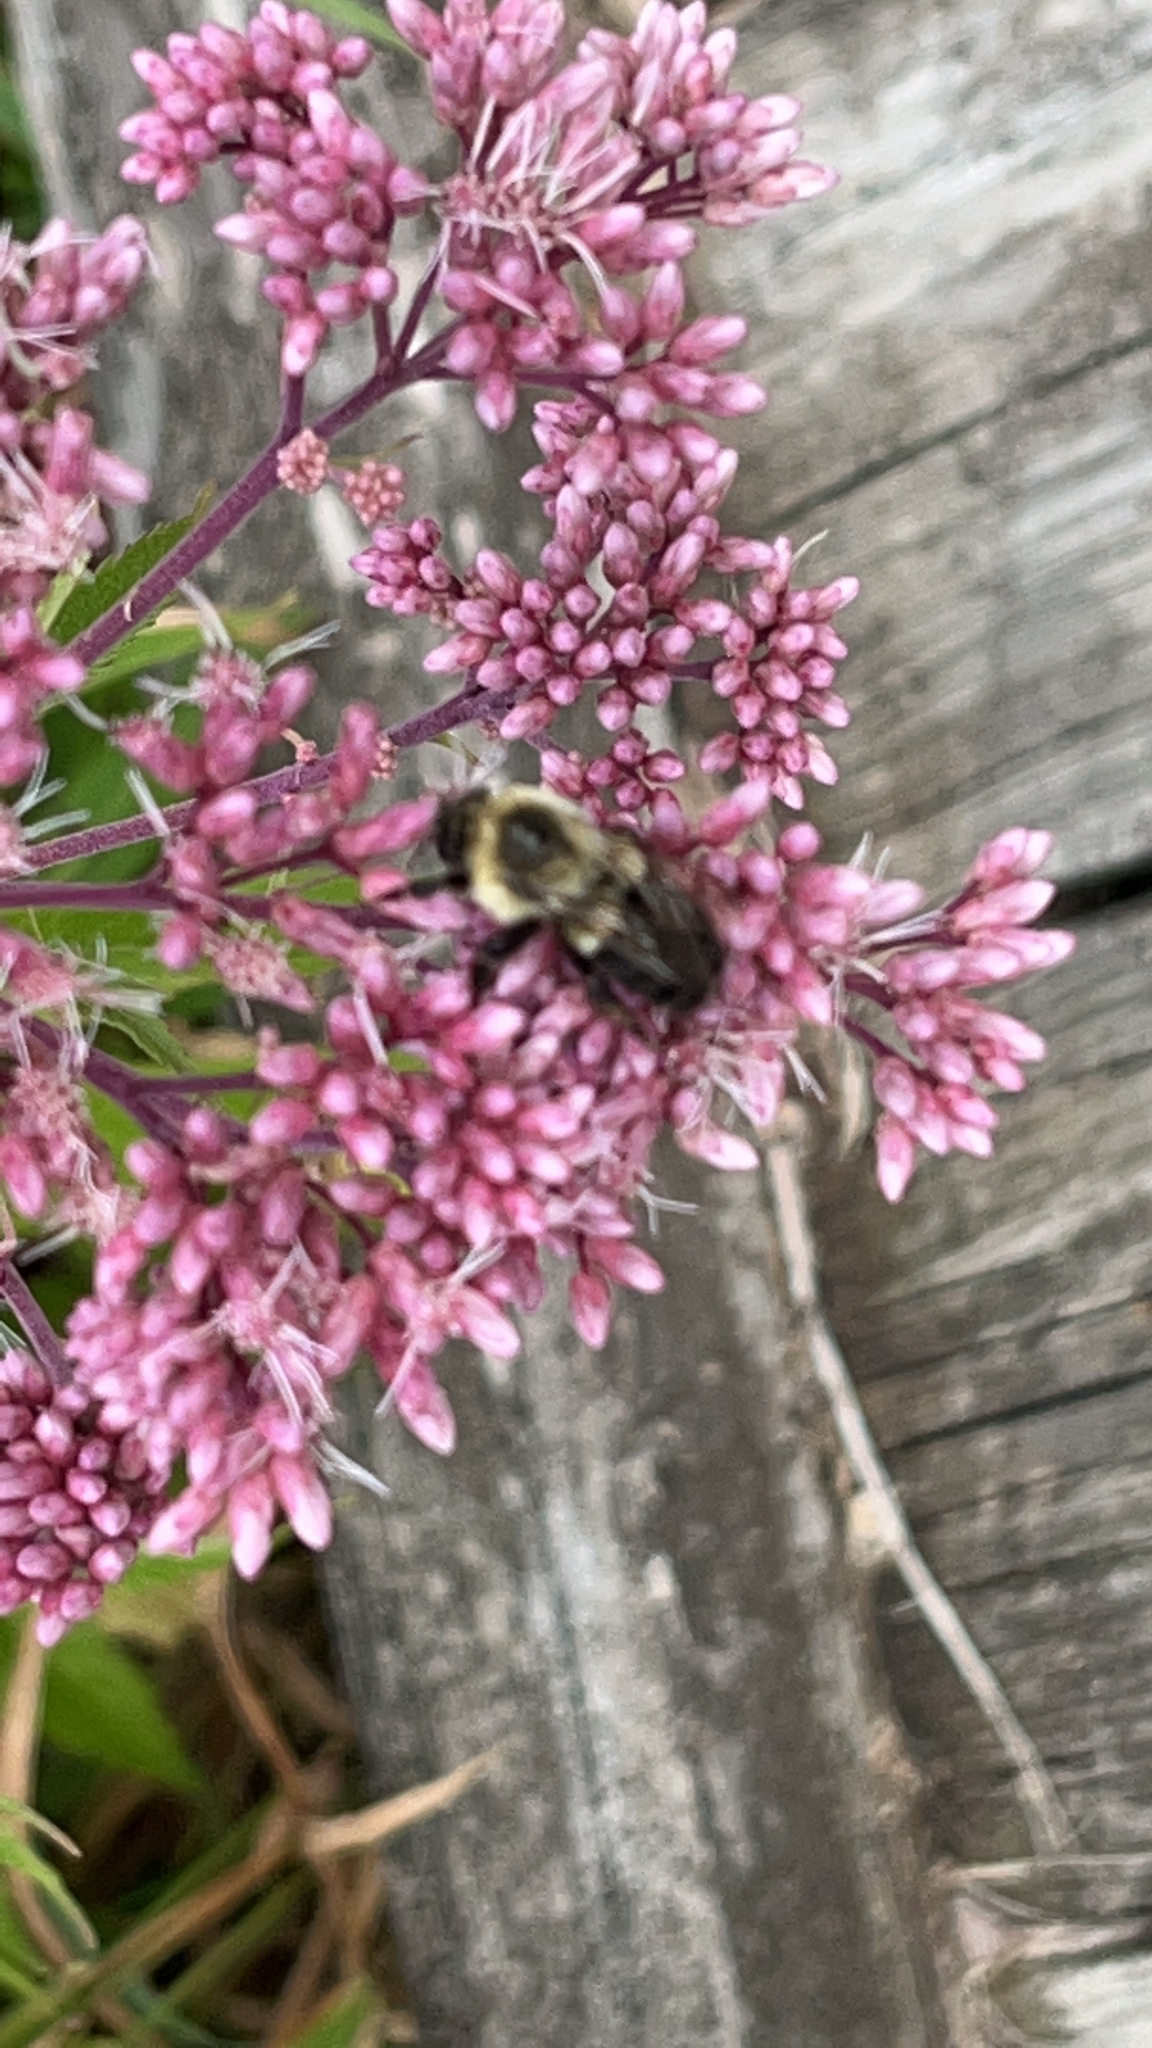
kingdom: Animalia
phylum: Arthropoda
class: Insecta
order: Hymenoptera
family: Apidae
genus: Bombus
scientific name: Bombus impatiens
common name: Common eastern bumble bee
